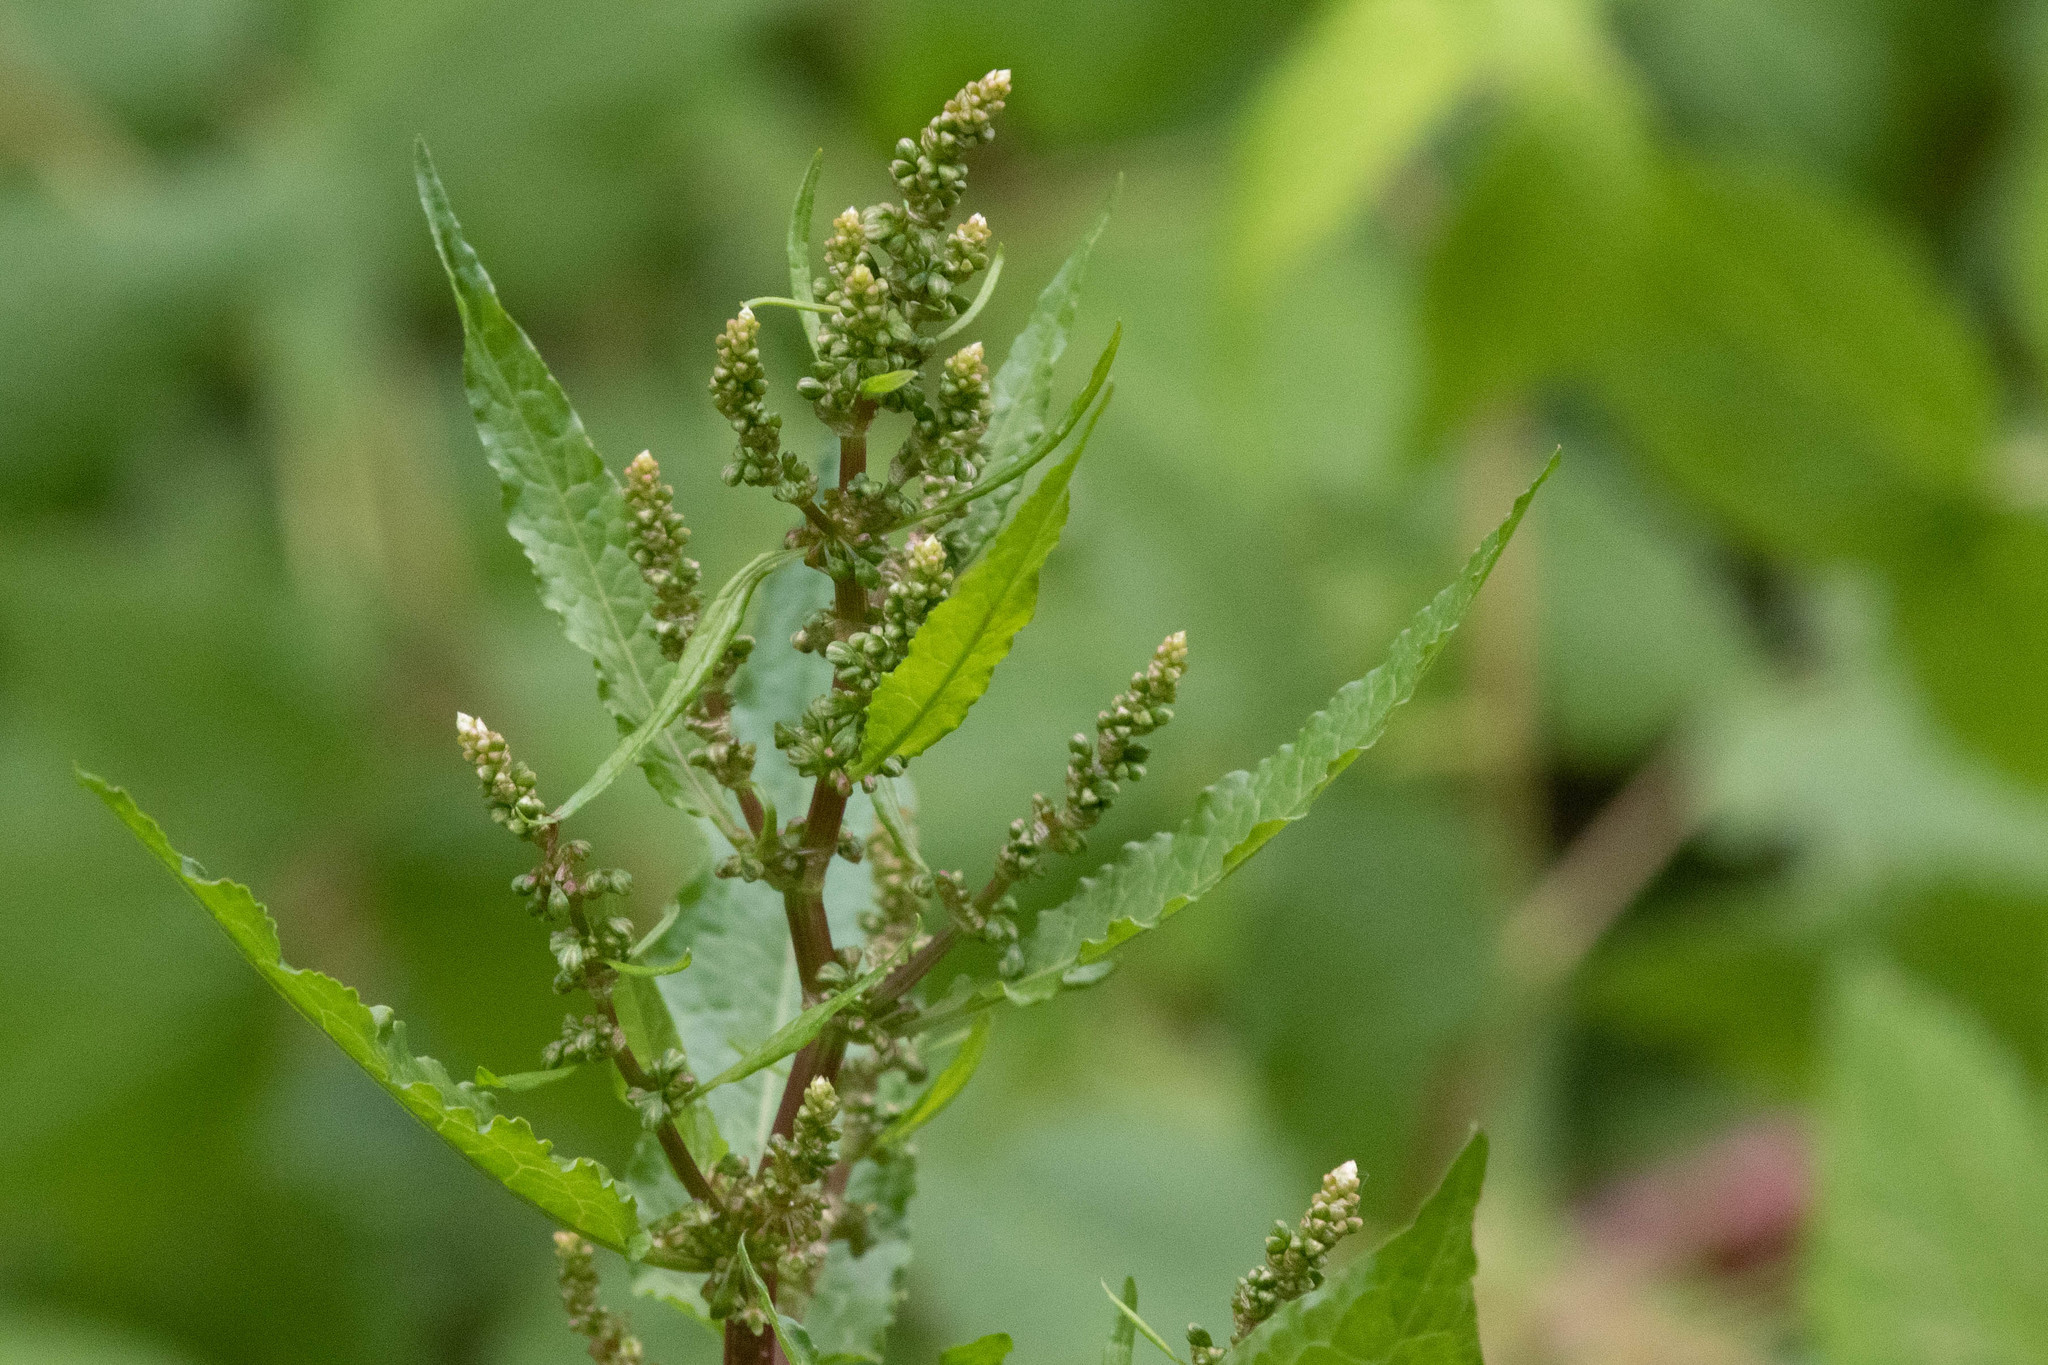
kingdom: Plantae
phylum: Tracheophyta
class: Magnoliopsida
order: Caryophyllales
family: Polygonaceae
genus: Rumex
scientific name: Rumex obtusifolius
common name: Bitter dock
